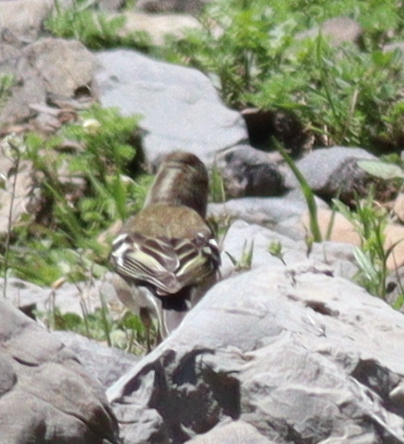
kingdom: Animalia
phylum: Chordata
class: Aves
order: Passeriformes
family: Fringillidae
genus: Fringilla
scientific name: Fringilla coelebs
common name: Common chaffinch
